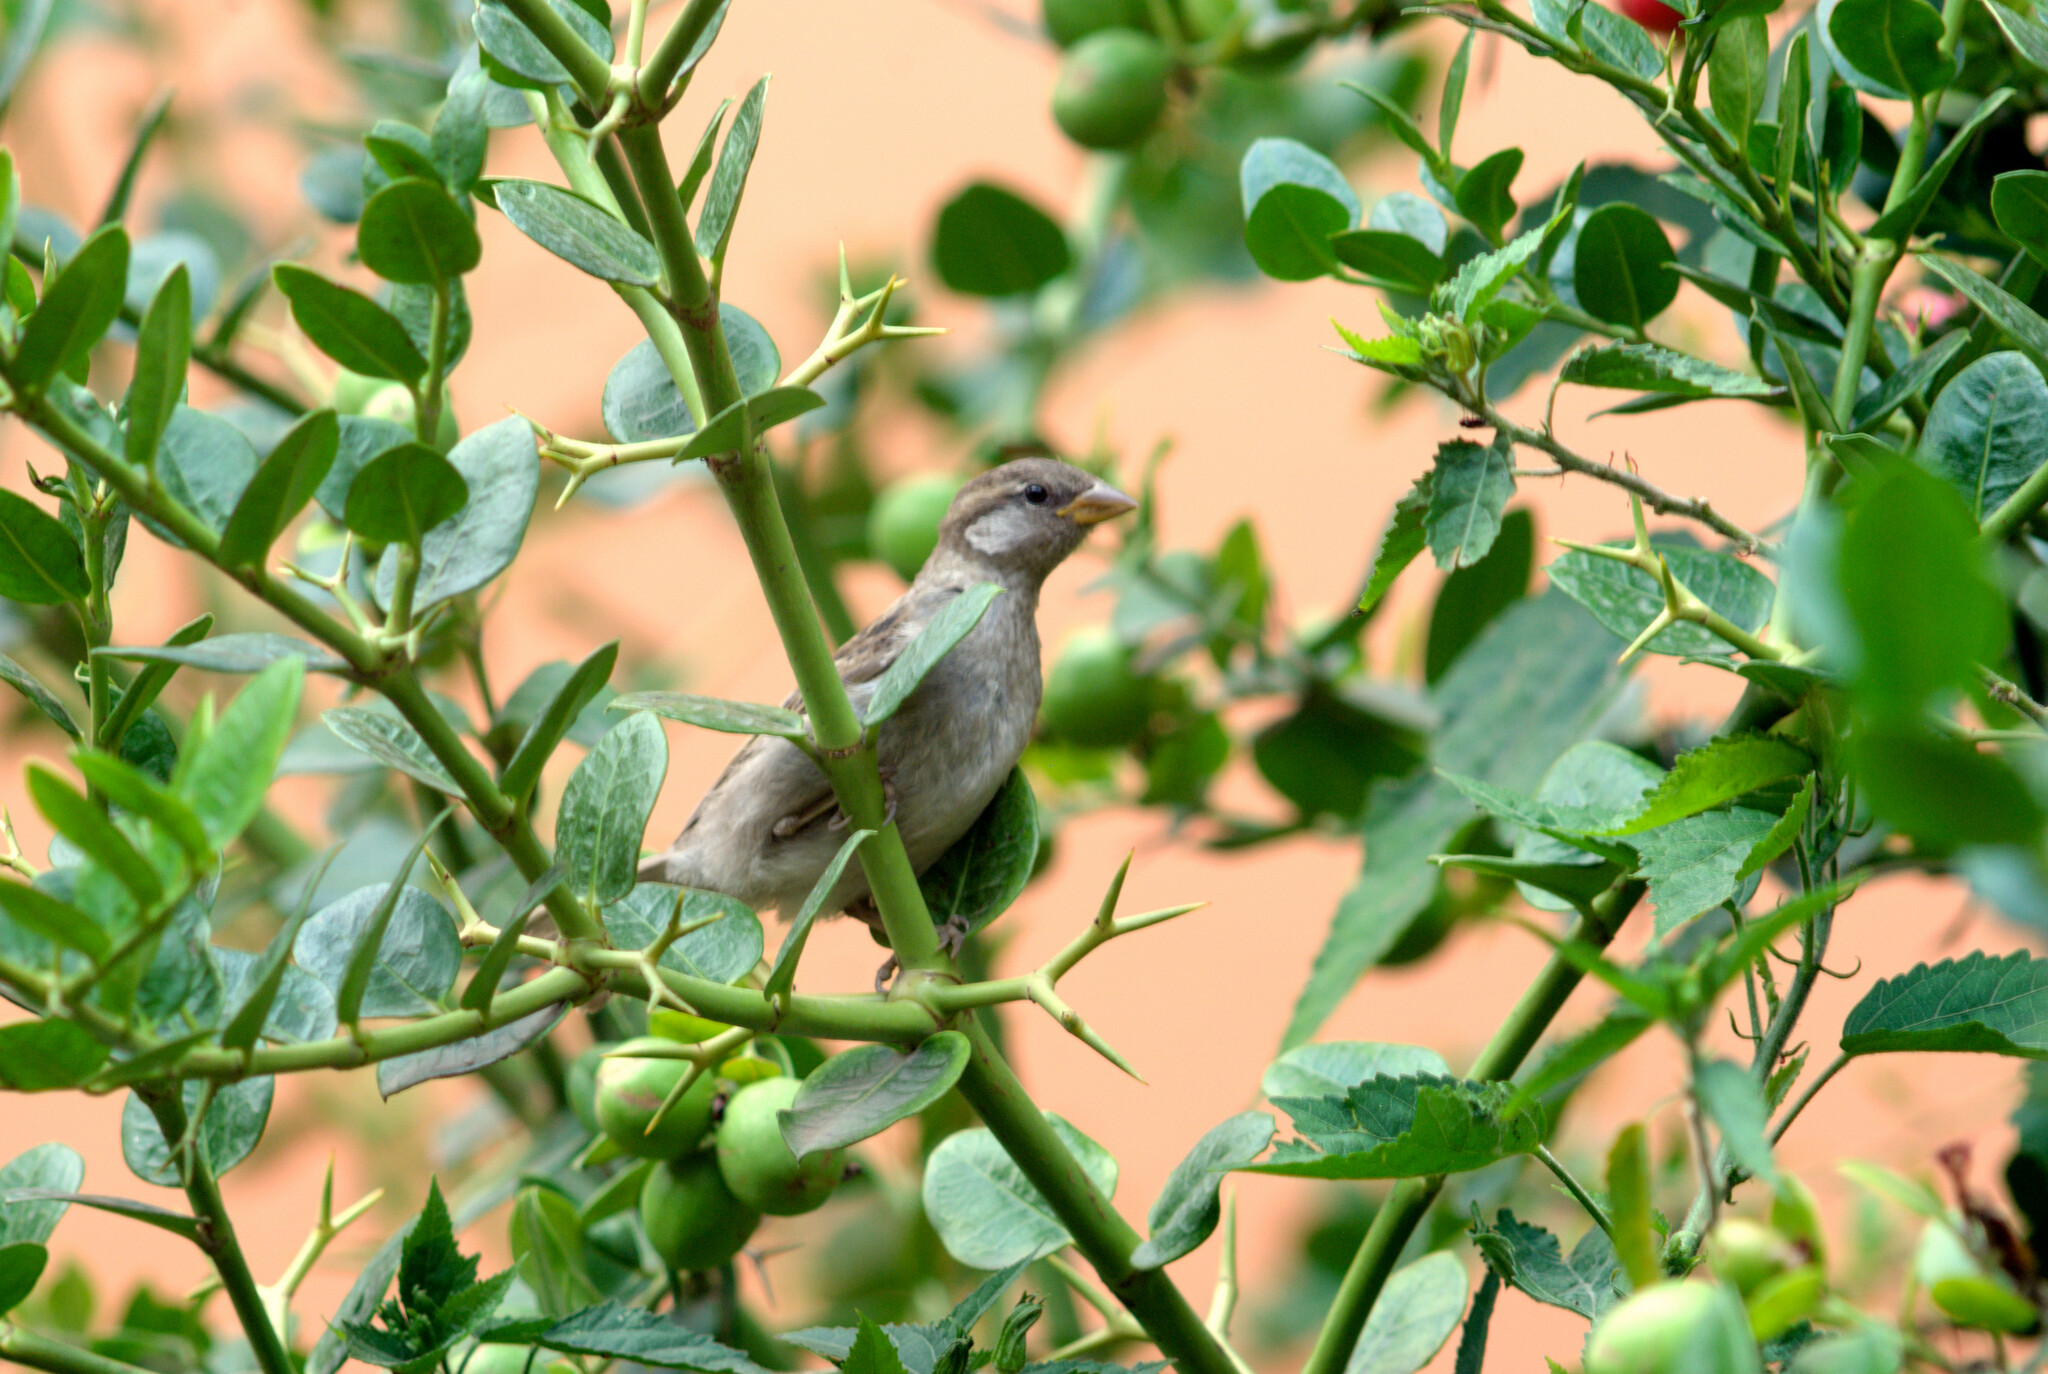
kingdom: Animalia
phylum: Chordata
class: Aves
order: Passeriformes
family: Passeridae
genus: Passer
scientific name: Passer domesticus
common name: House sparrow
